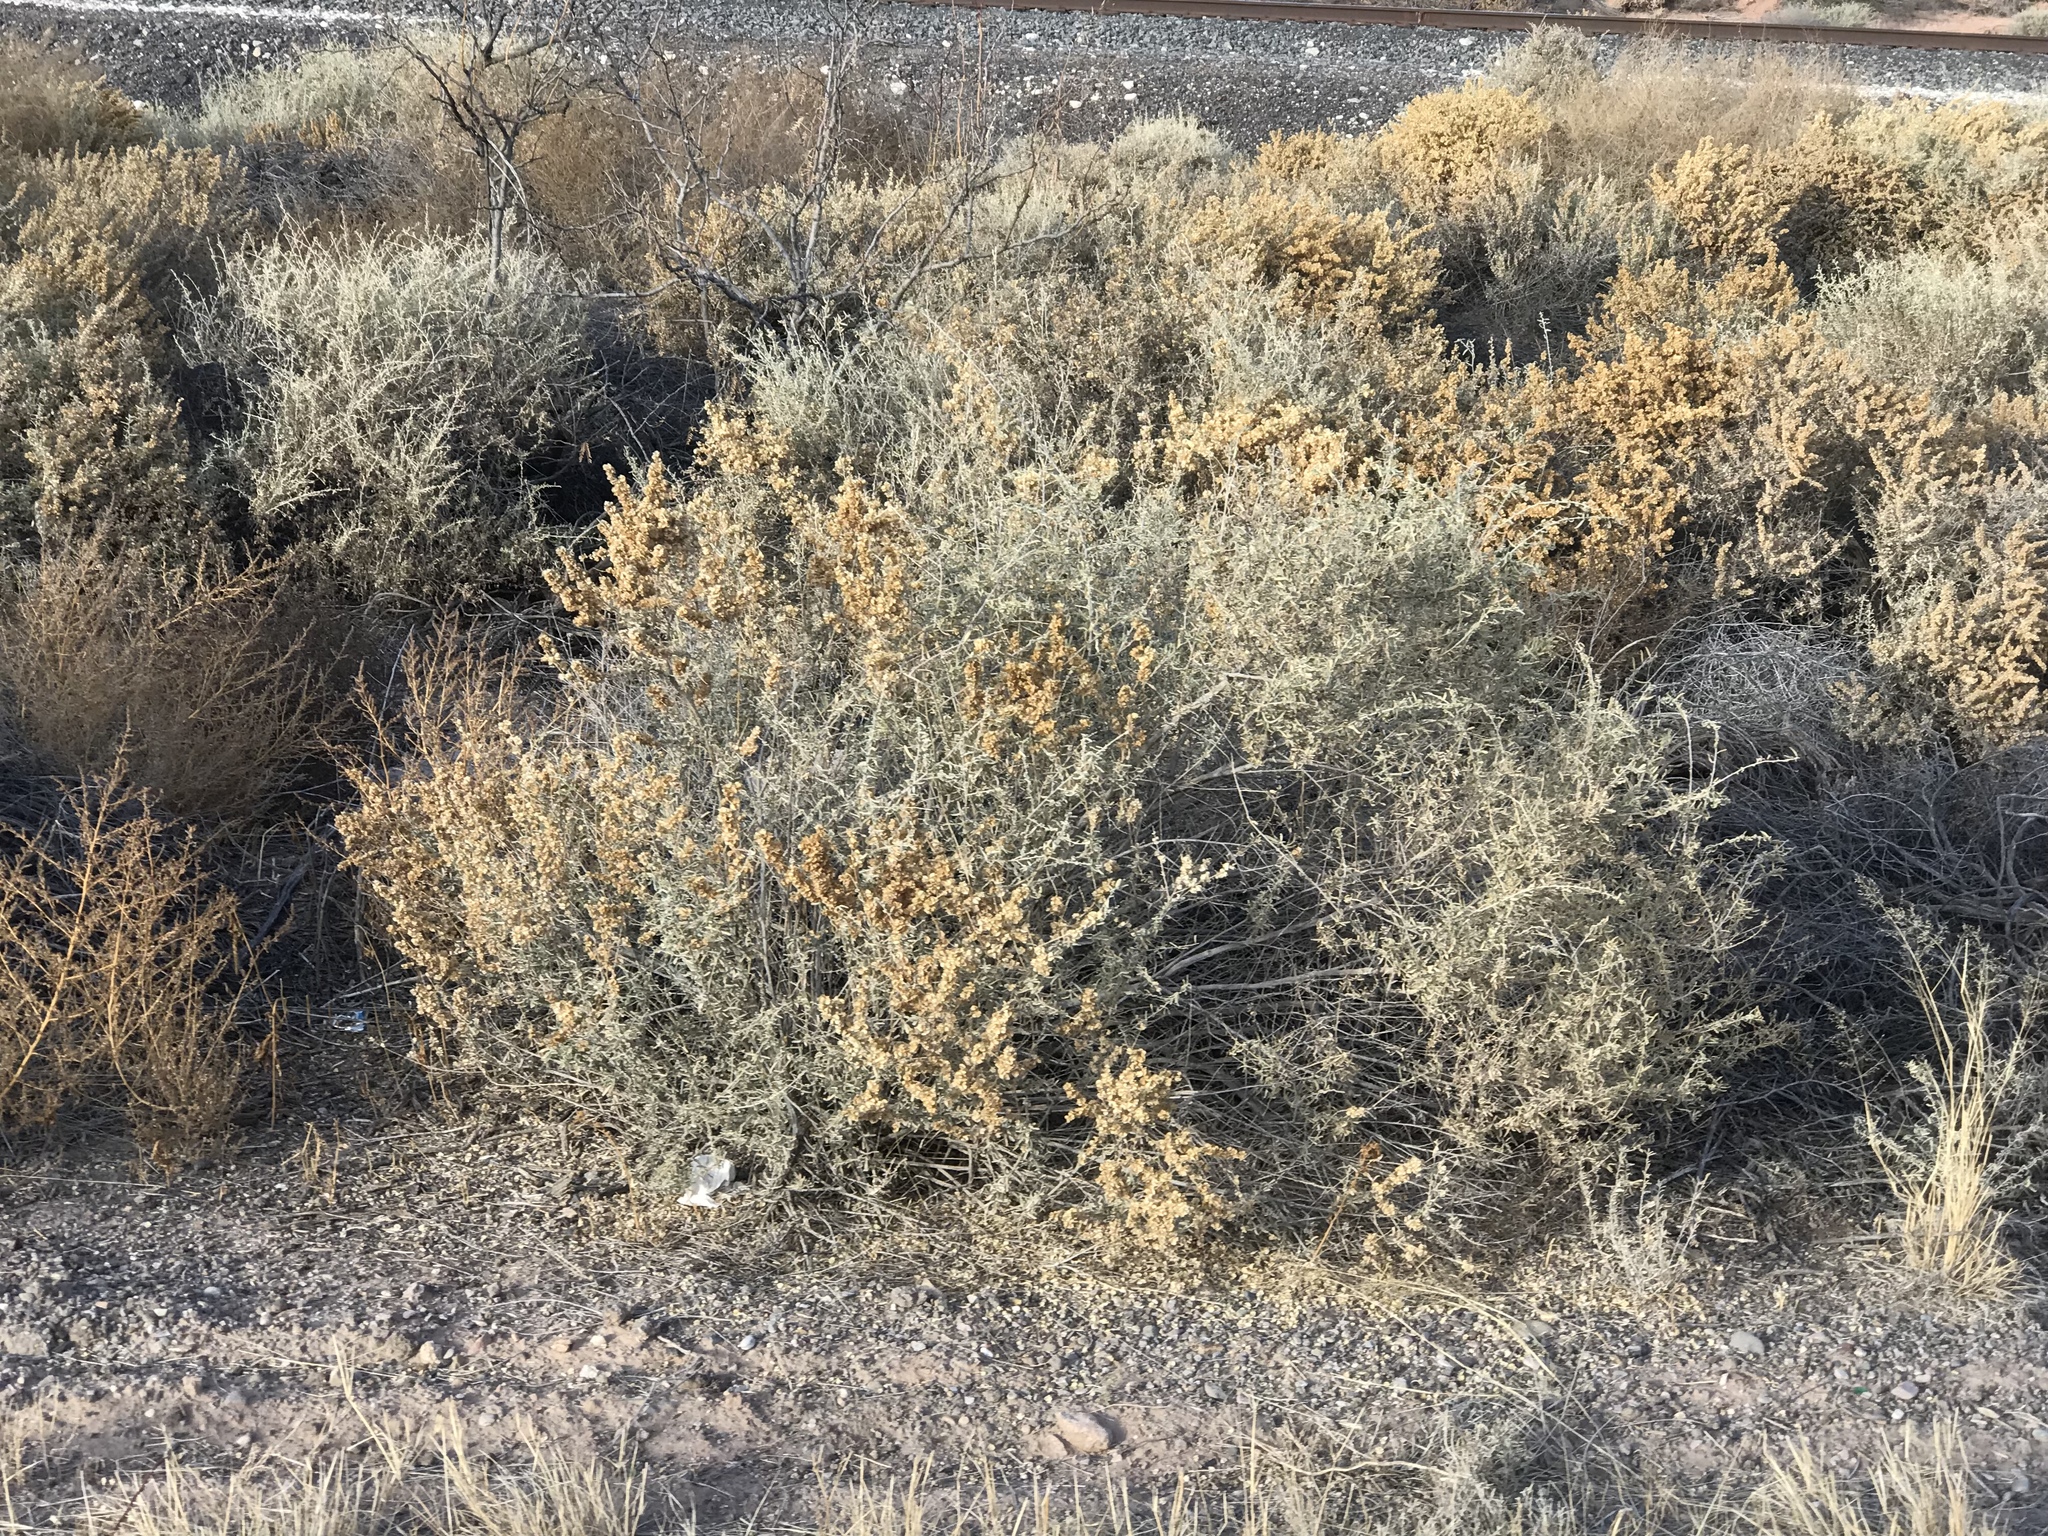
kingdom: Plantae
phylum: Tracheophyta
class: Magnoliopsida
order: Caryophyllales
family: Amaranthaceae
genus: Atriplex
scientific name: Atriplex canescens
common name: Four-wing saltbush
